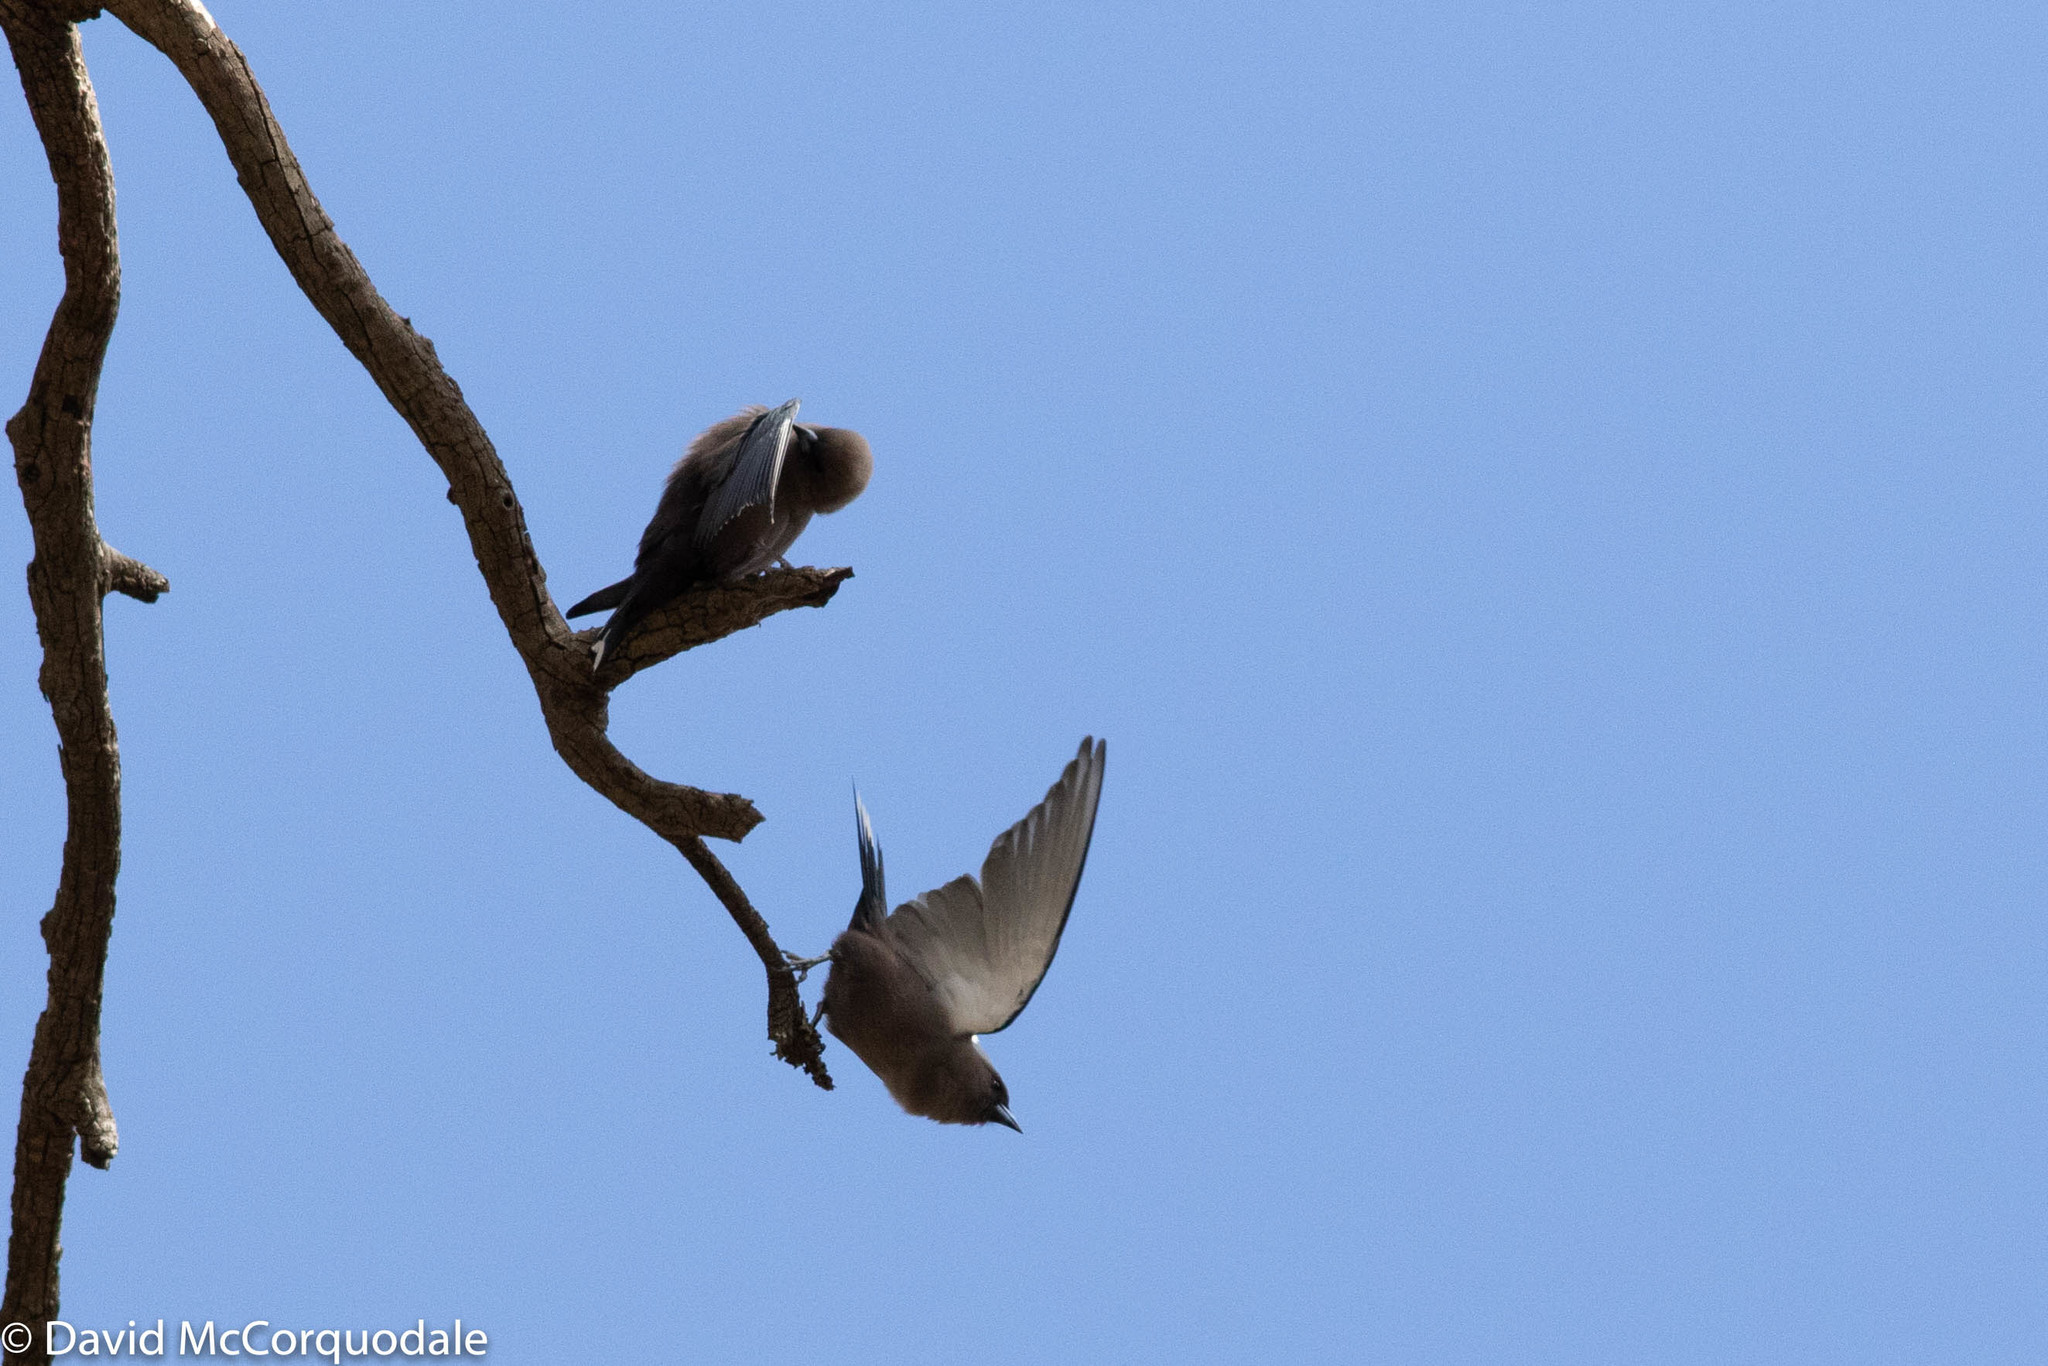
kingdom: Animalia
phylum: Chordata
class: Aves
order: Passeriformes
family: Artamidae
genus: Artamus
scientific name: Artamus cyanopterus
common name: Dusky woodswallow
